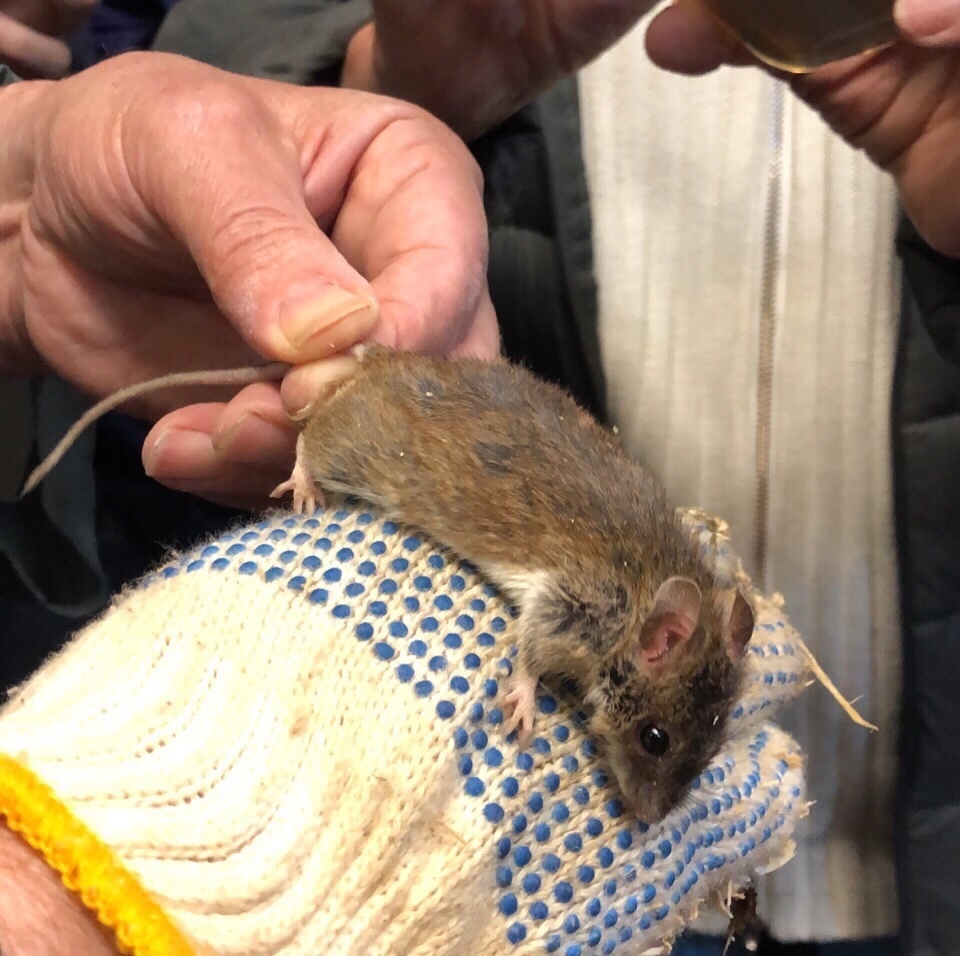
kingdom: Animalia
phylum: Chordata
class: Mammalia
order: Rodentia
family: Muridae
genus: Apodemus
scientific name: Apodemus uralensis
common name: Herb field mouse
